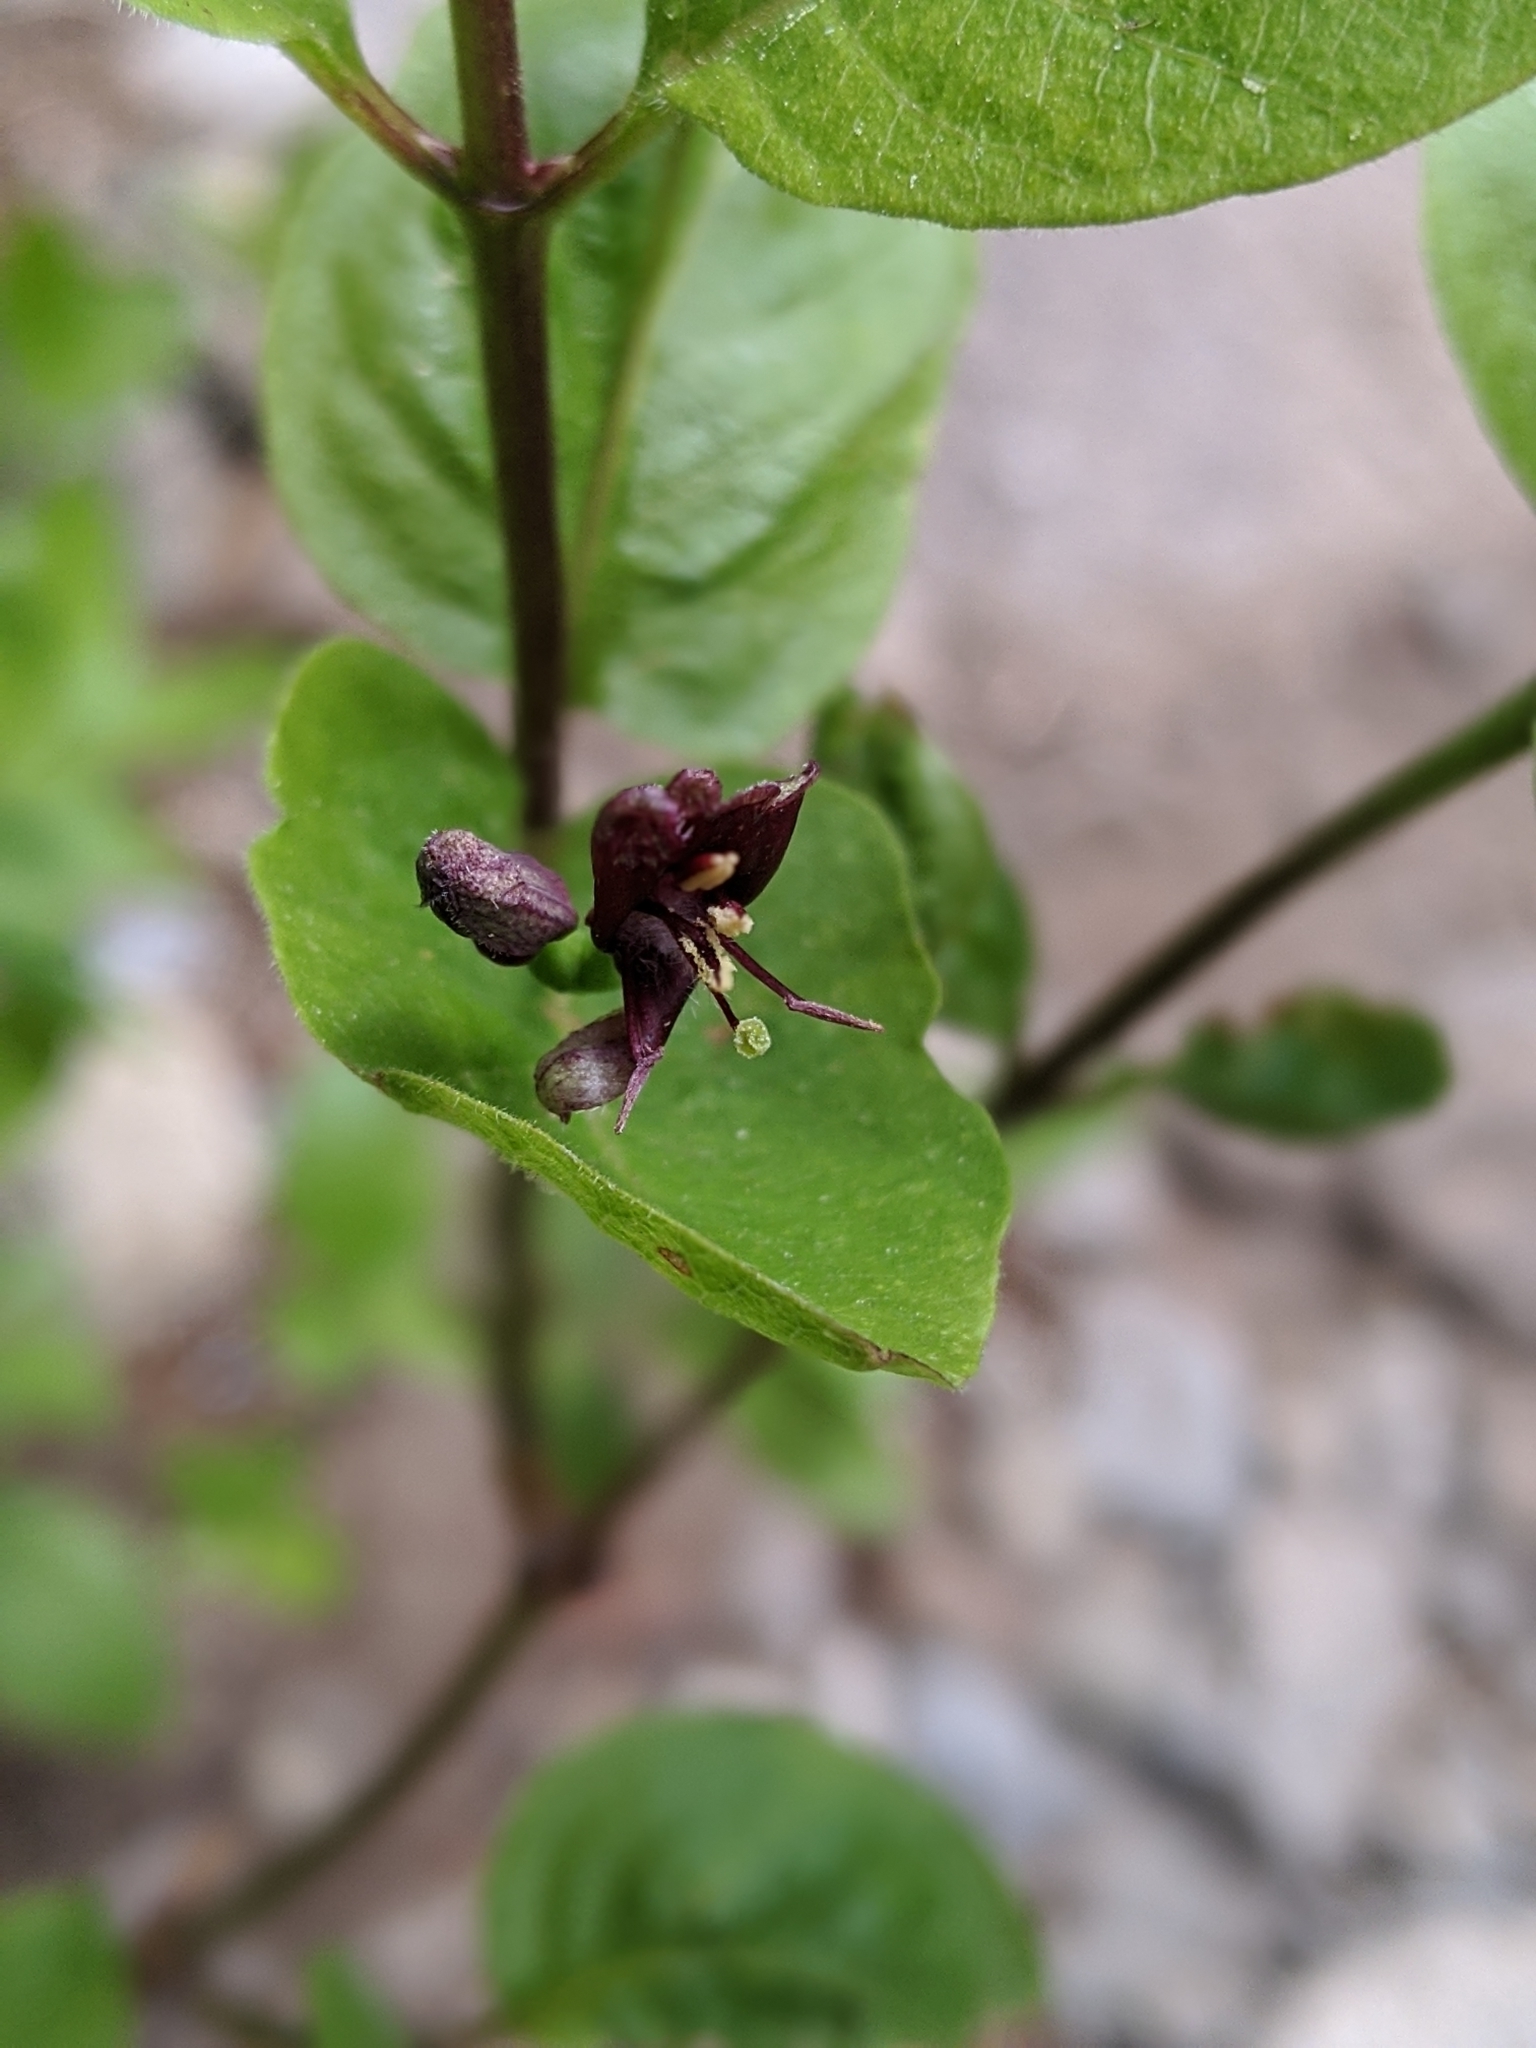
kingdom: Plantae
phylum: Tracheophyta
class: Magnoliopsida
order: Dipsacales
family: Caprifoliaceae
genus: Lonicera
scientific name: Lonicera conjugialis
